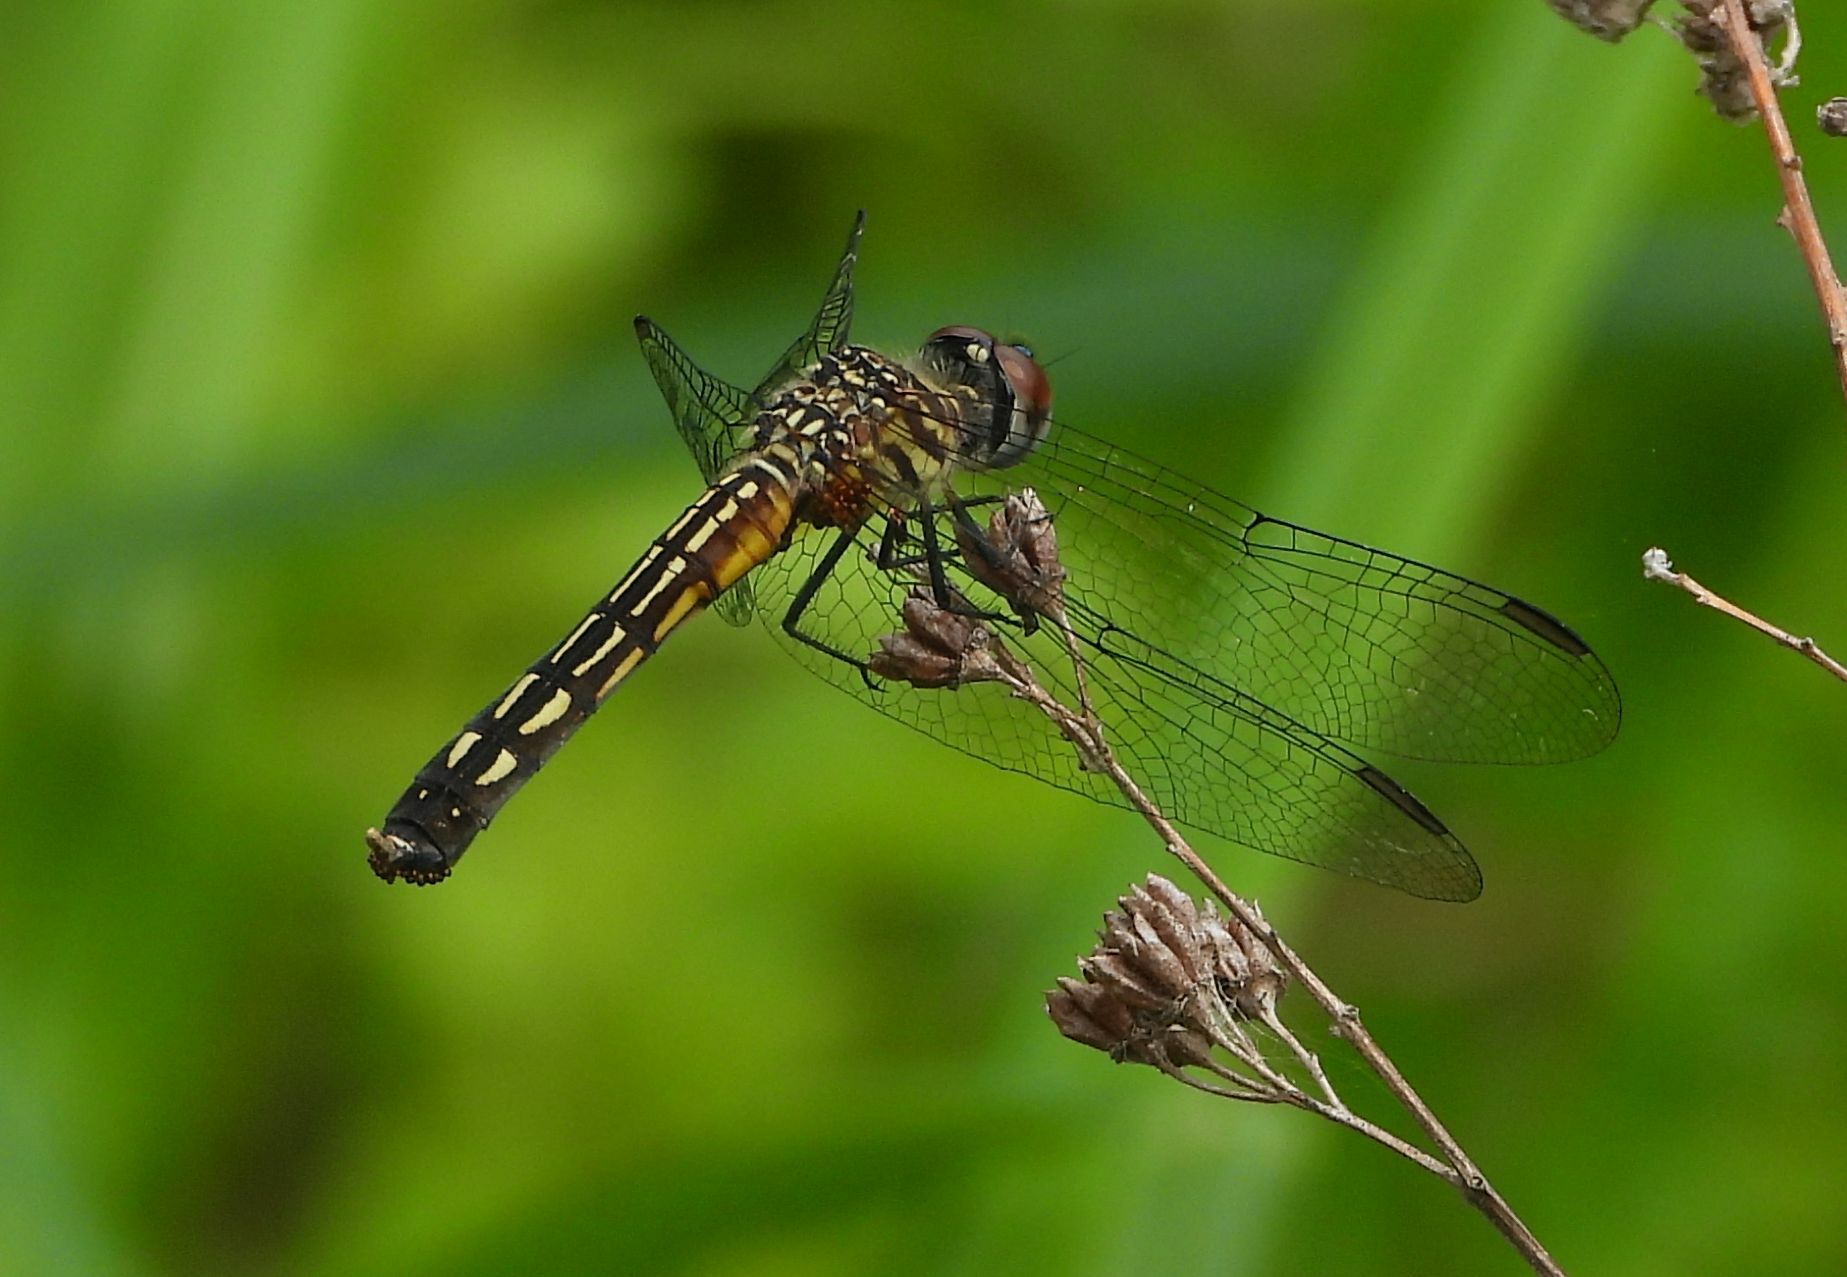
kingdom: Animalia
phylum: Arthropoda
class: Insecta
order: Odonata
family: Libellulidae
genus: Pachydiplax
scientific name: Pachydiplax longipennis
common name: Blue dasher
